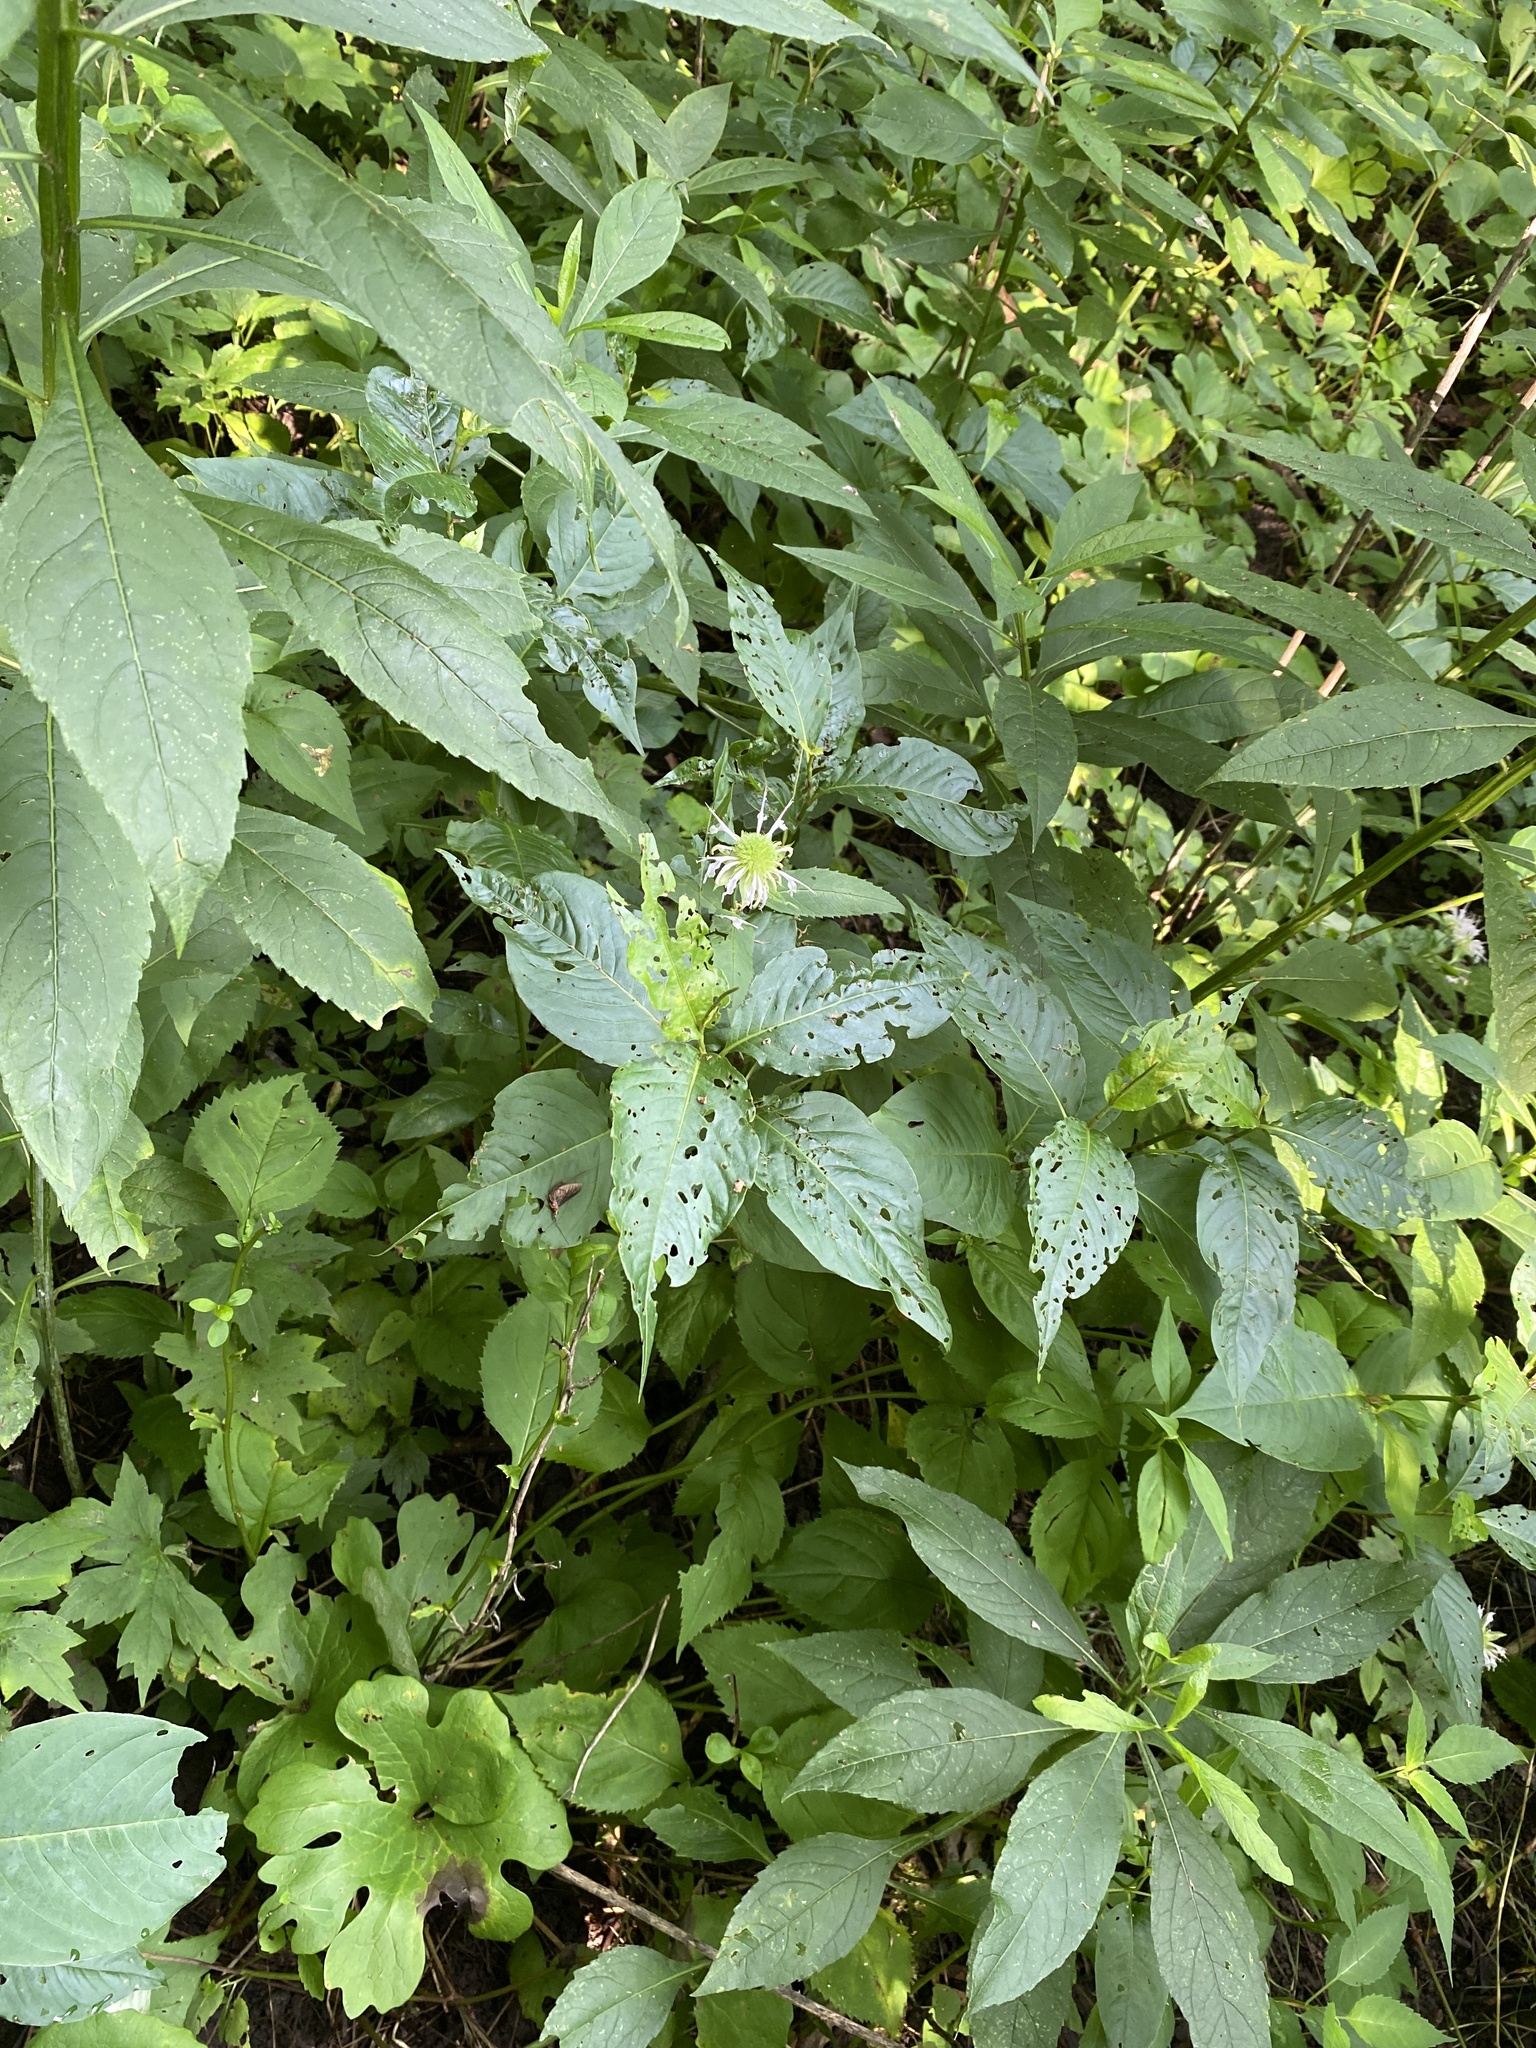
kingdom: Plantae
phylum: Tracheophyta
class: Magnoliopsida
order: Lamiales
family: Lamiaceae
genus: Monarda
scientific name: Monarda clinopodia
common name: Basil beebalm
